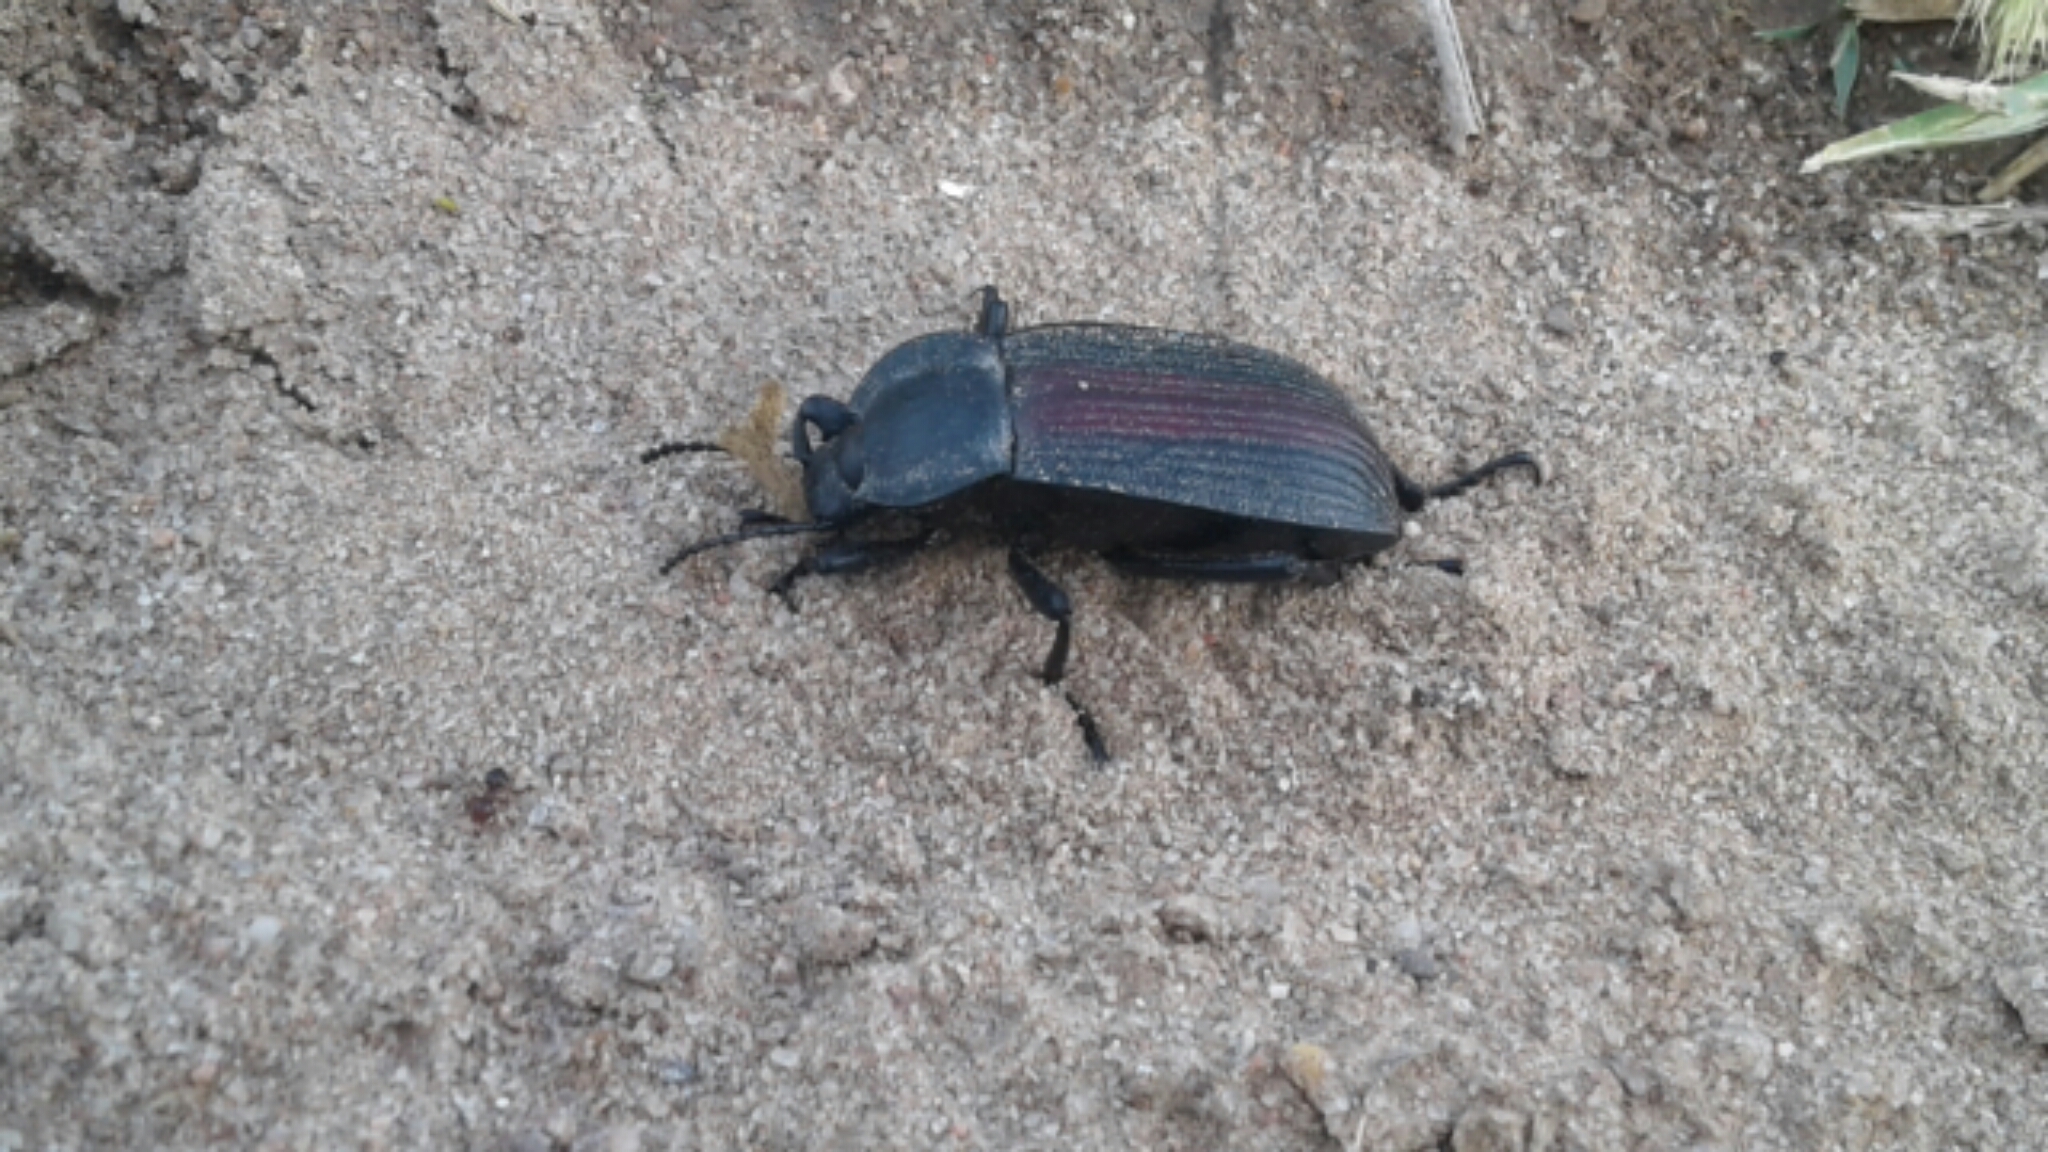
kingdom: Animalia
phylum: Arthropoda
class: Insecta
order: Coleoptera
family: Tenebrionidae
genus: Eleodes
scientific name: Eleodes suturalis
